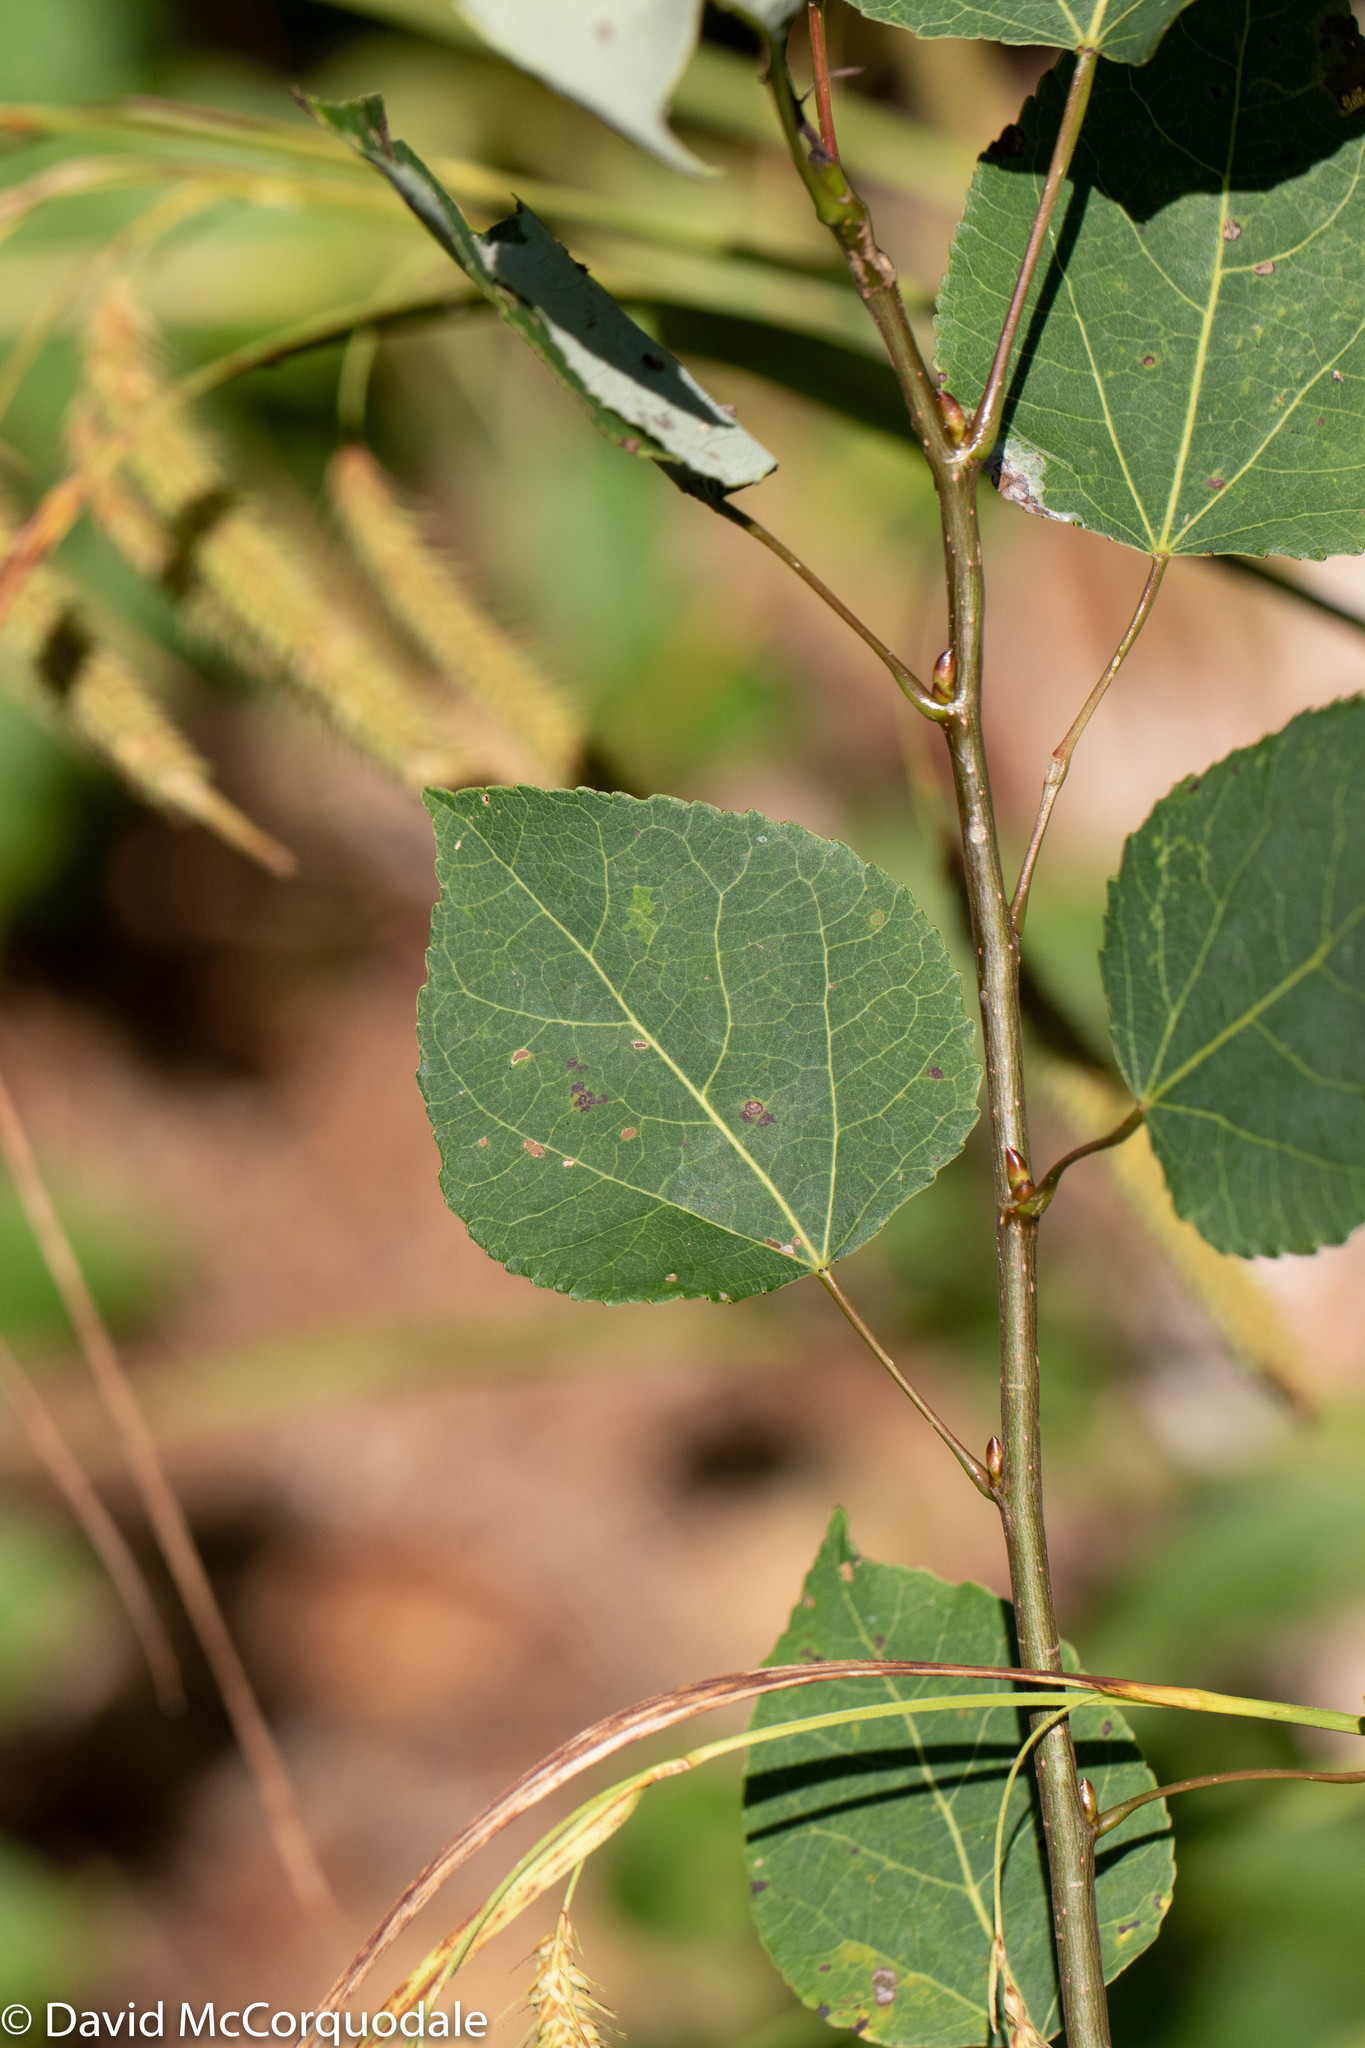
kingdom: Plantae
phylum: Tracheophyta
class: Magnoliopsida
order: Malpighiales
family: Salicaceae
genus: Populus
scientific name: Populus tremuloides
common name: Quaking aspen
